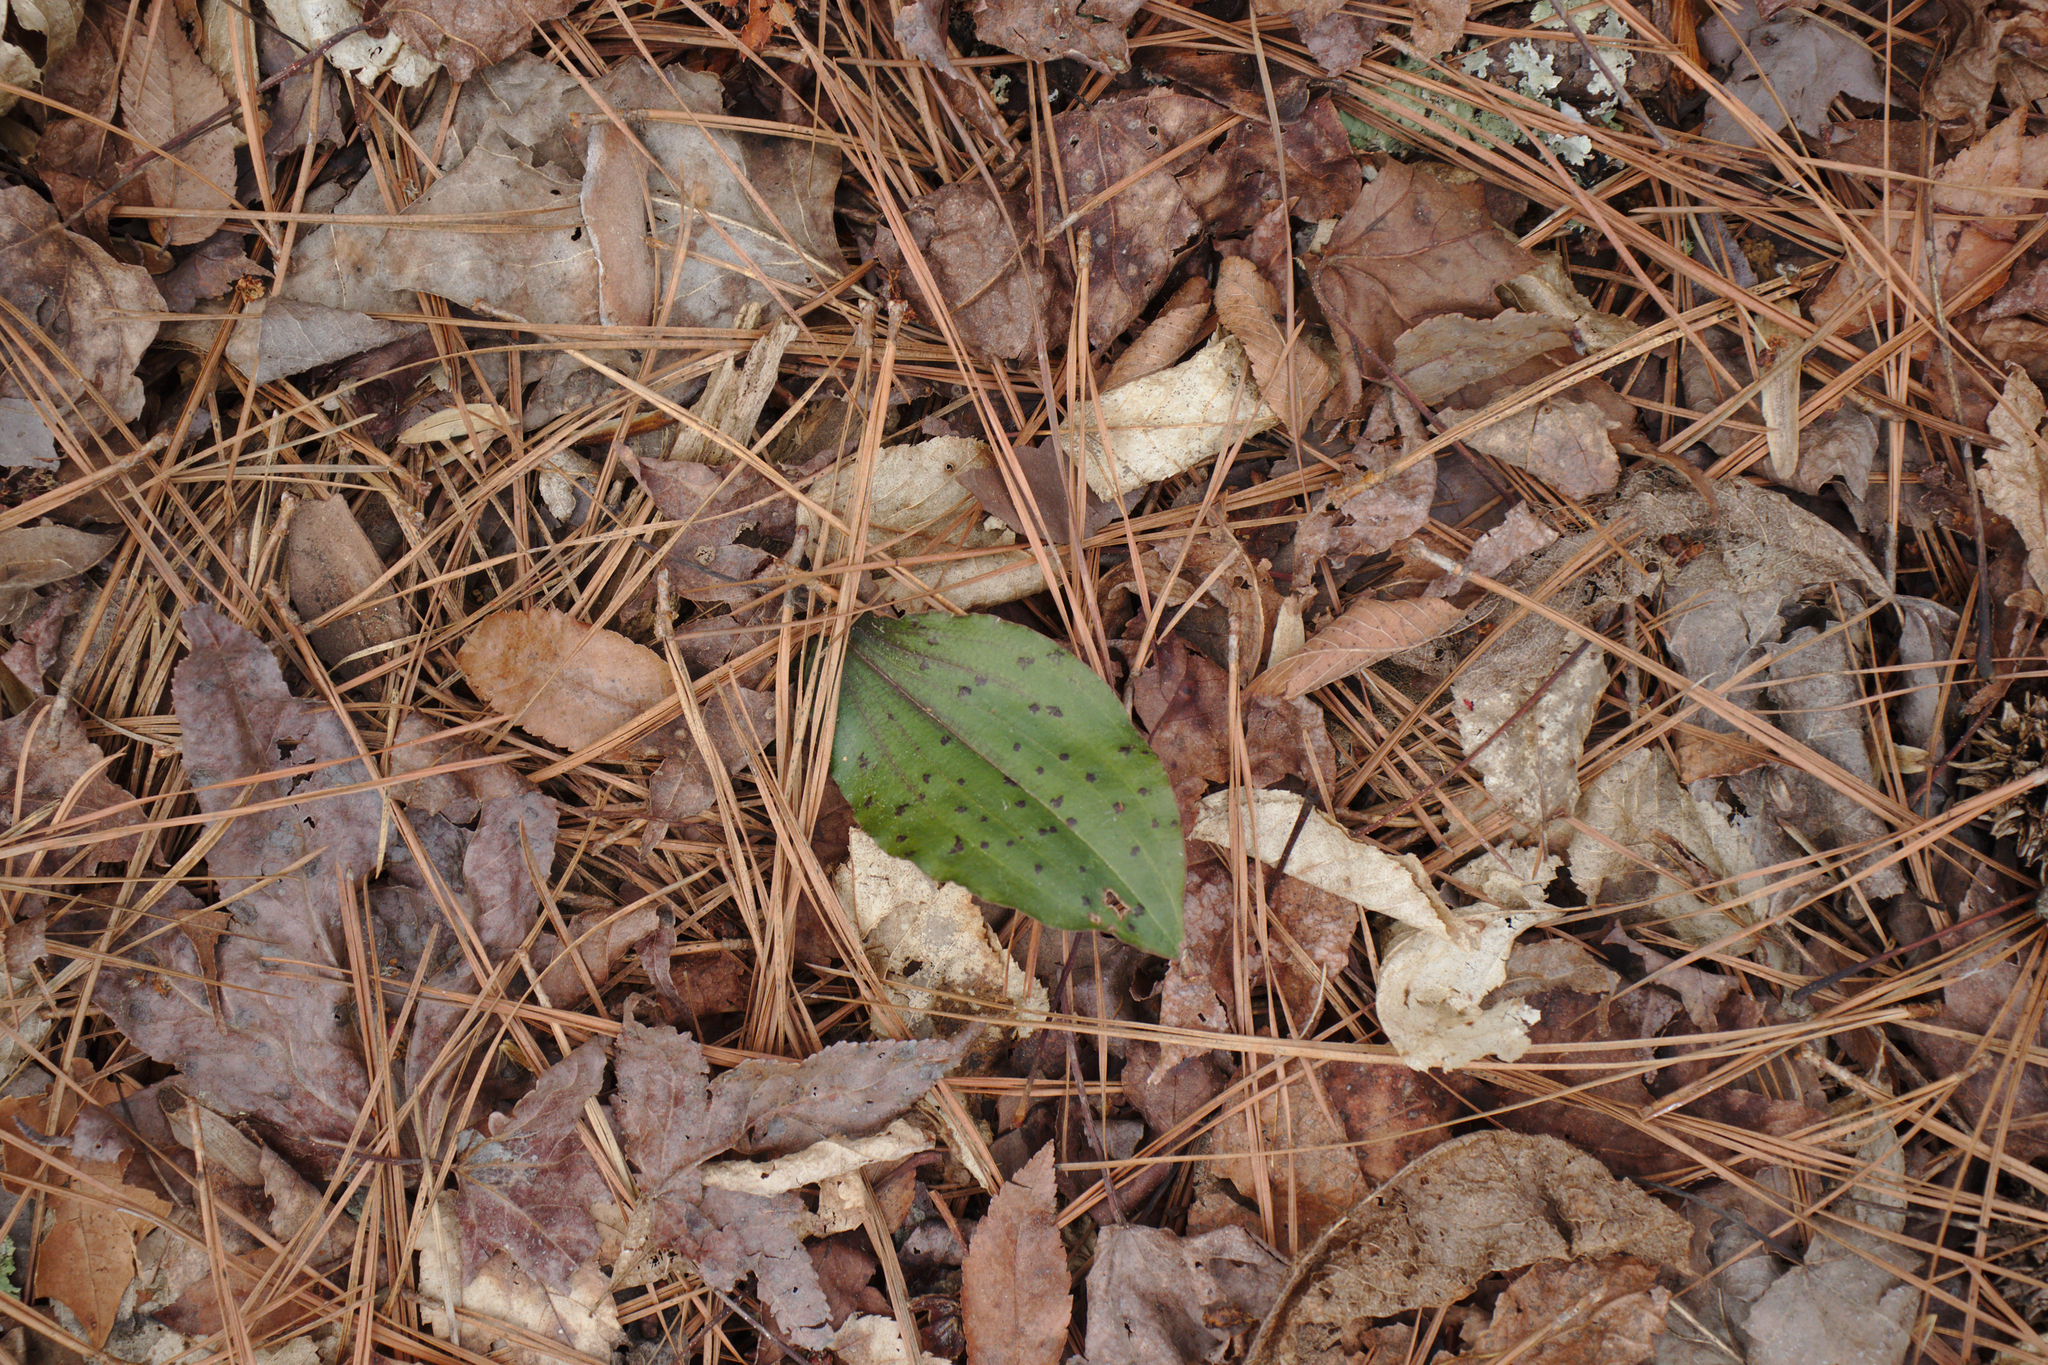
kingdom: Plantae
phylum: Tracheophyta
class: Liliopsida
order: Asparagales
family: Orchidaceae
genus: Tipularia
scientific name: Tipularia discolor
